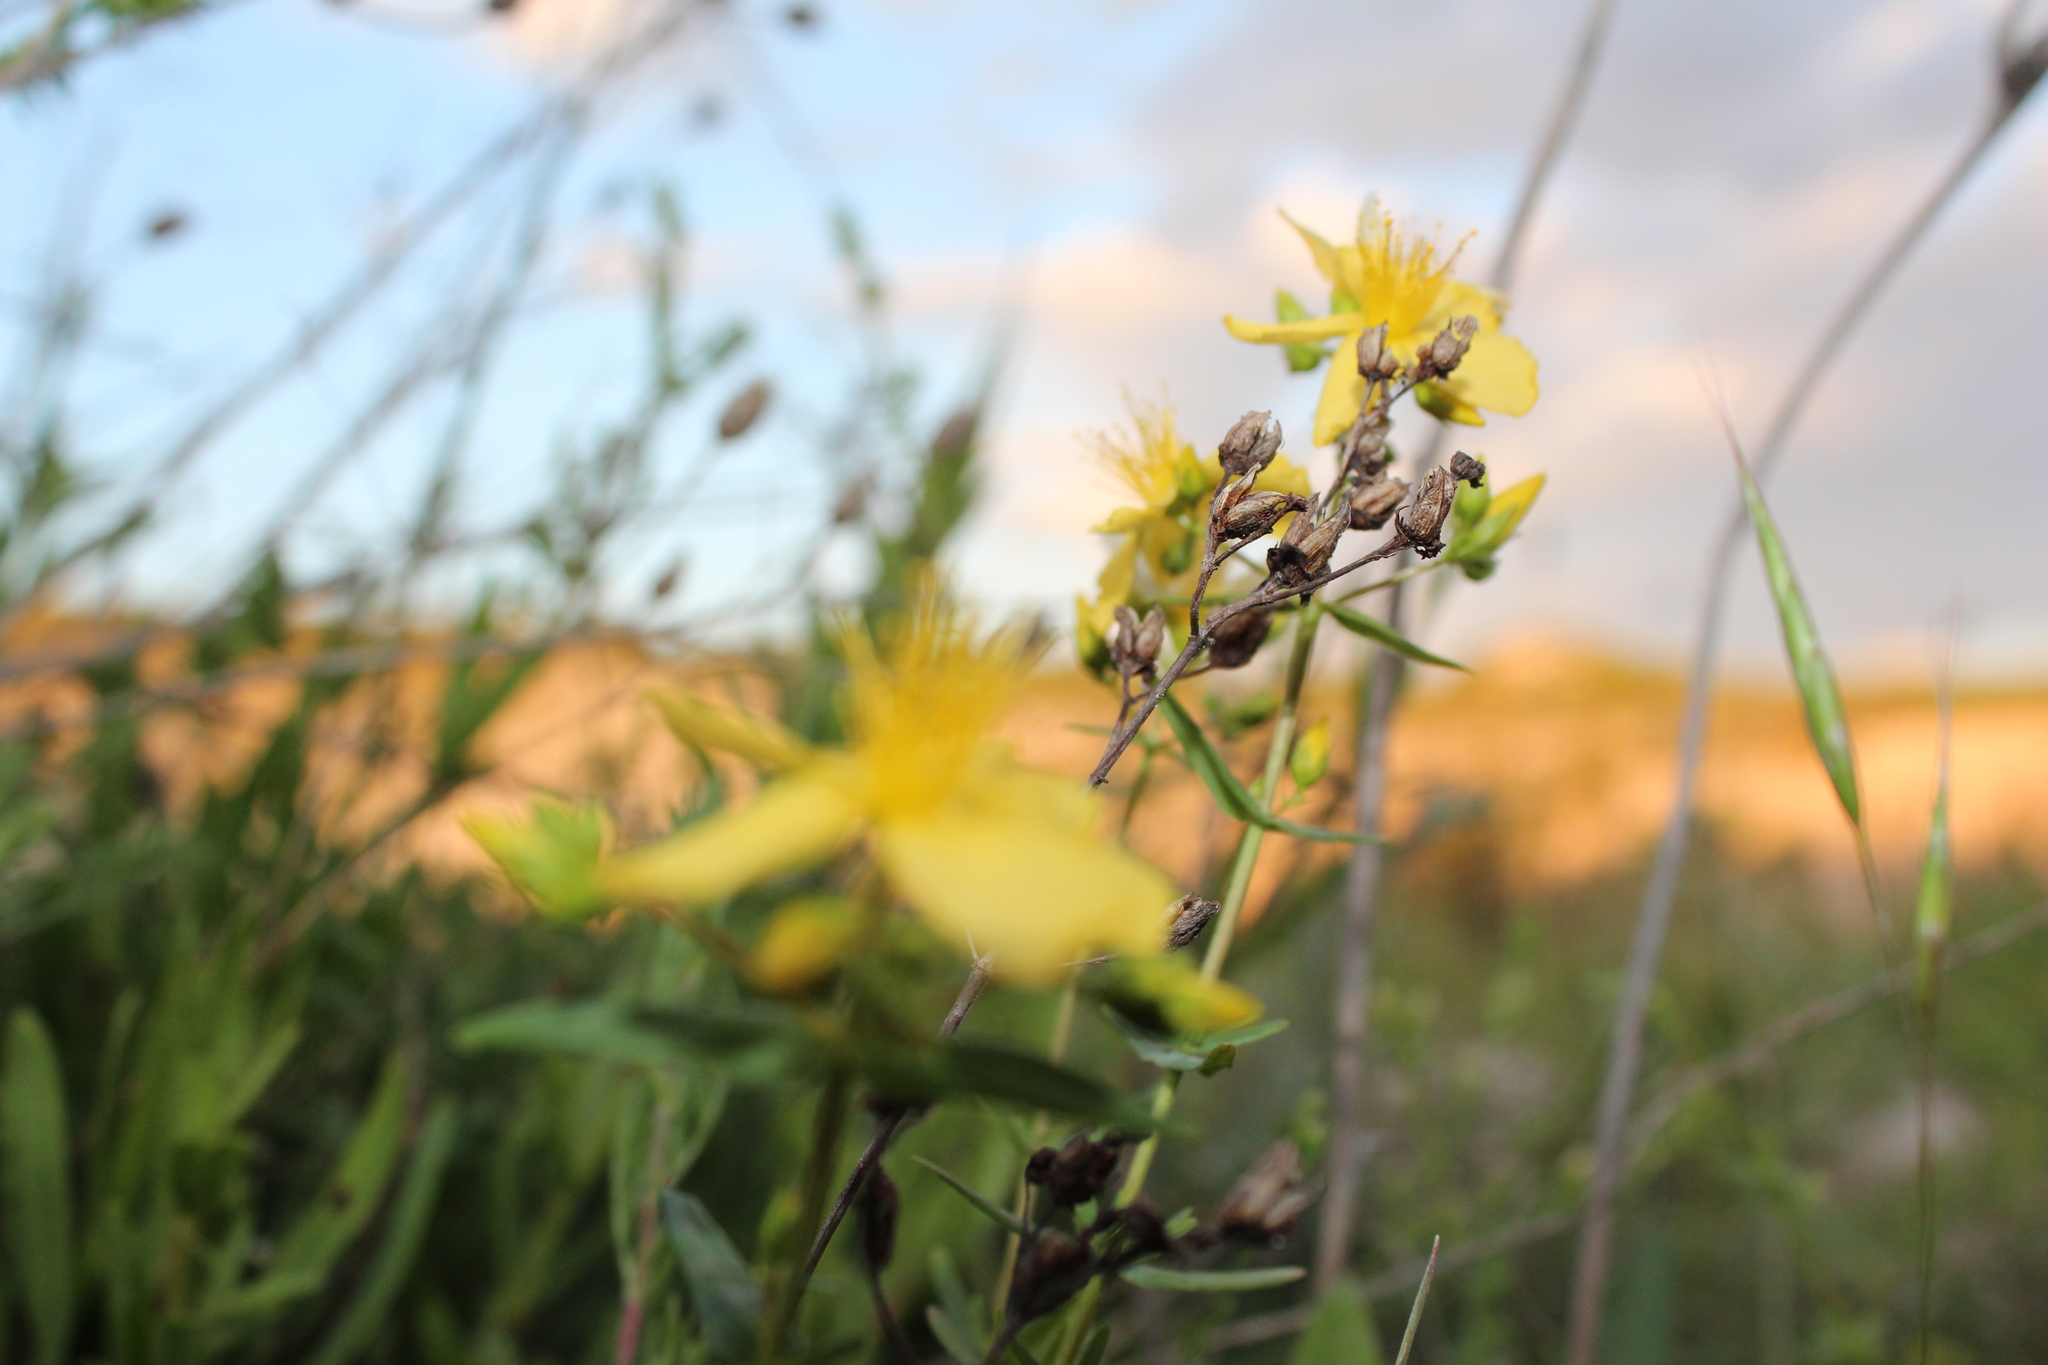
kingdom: Plantae
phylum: Tracheophyta
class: Magnoliopsida
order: Malpighiales
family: Hypericaceae
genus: Hypericum
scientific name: Hypericum elegans
